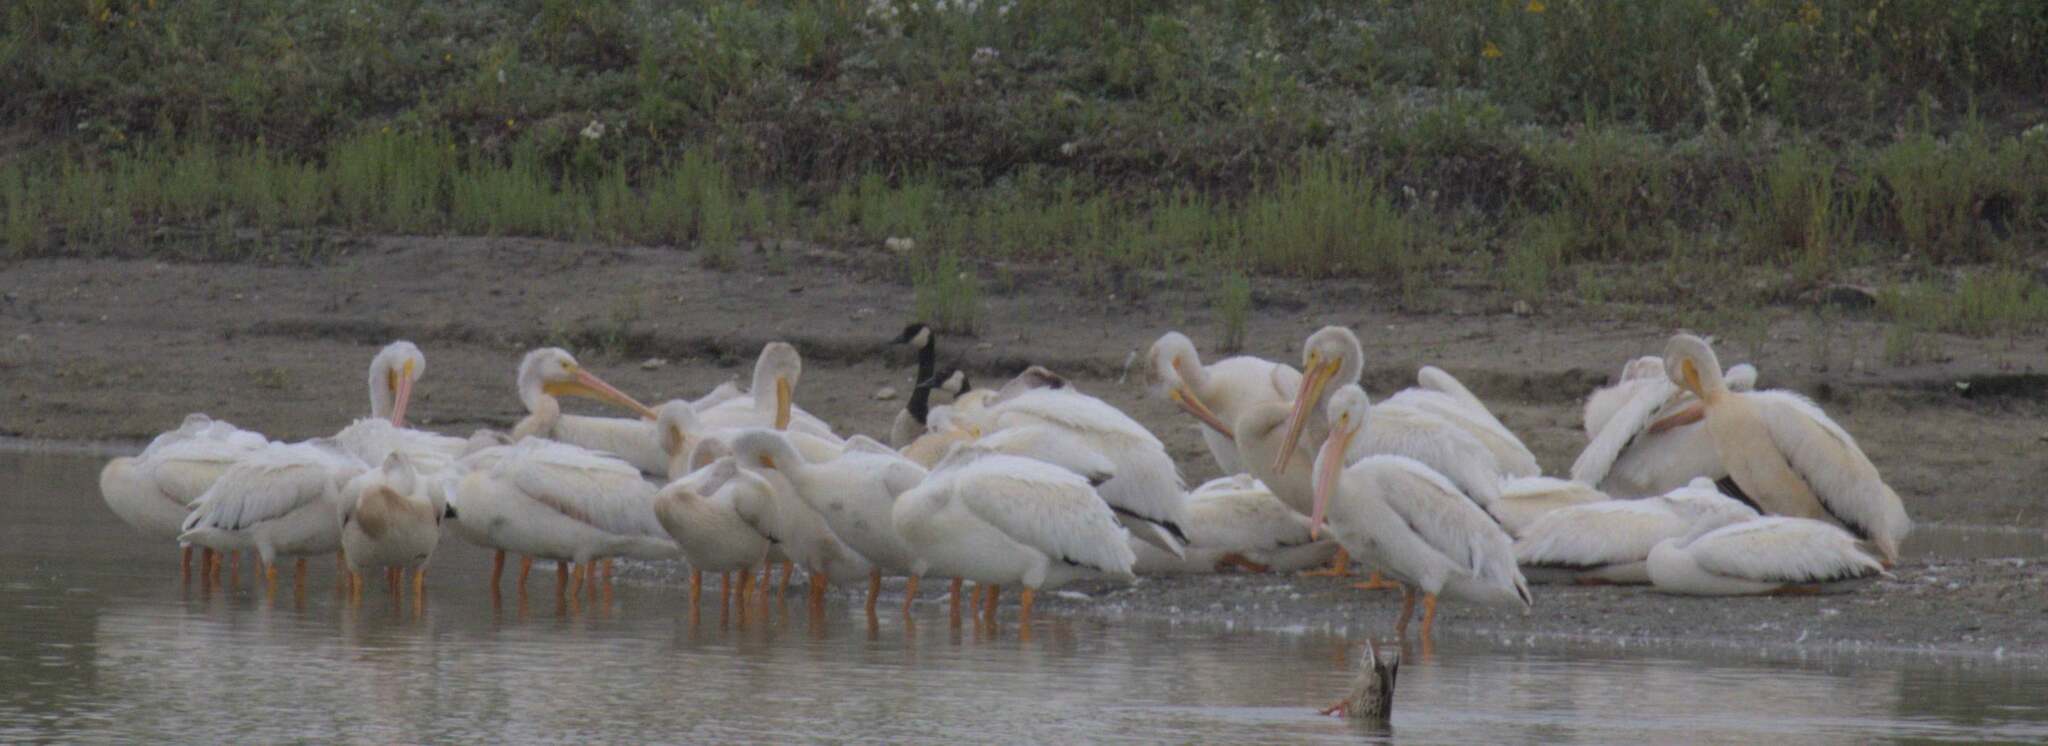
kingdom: Animalia
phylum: Chordata
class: Aves
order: Pelecaniformes
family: Pelecanidae
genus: Pelecanus
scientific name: Pelecanus erythrorhynchos
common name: American white pelican
